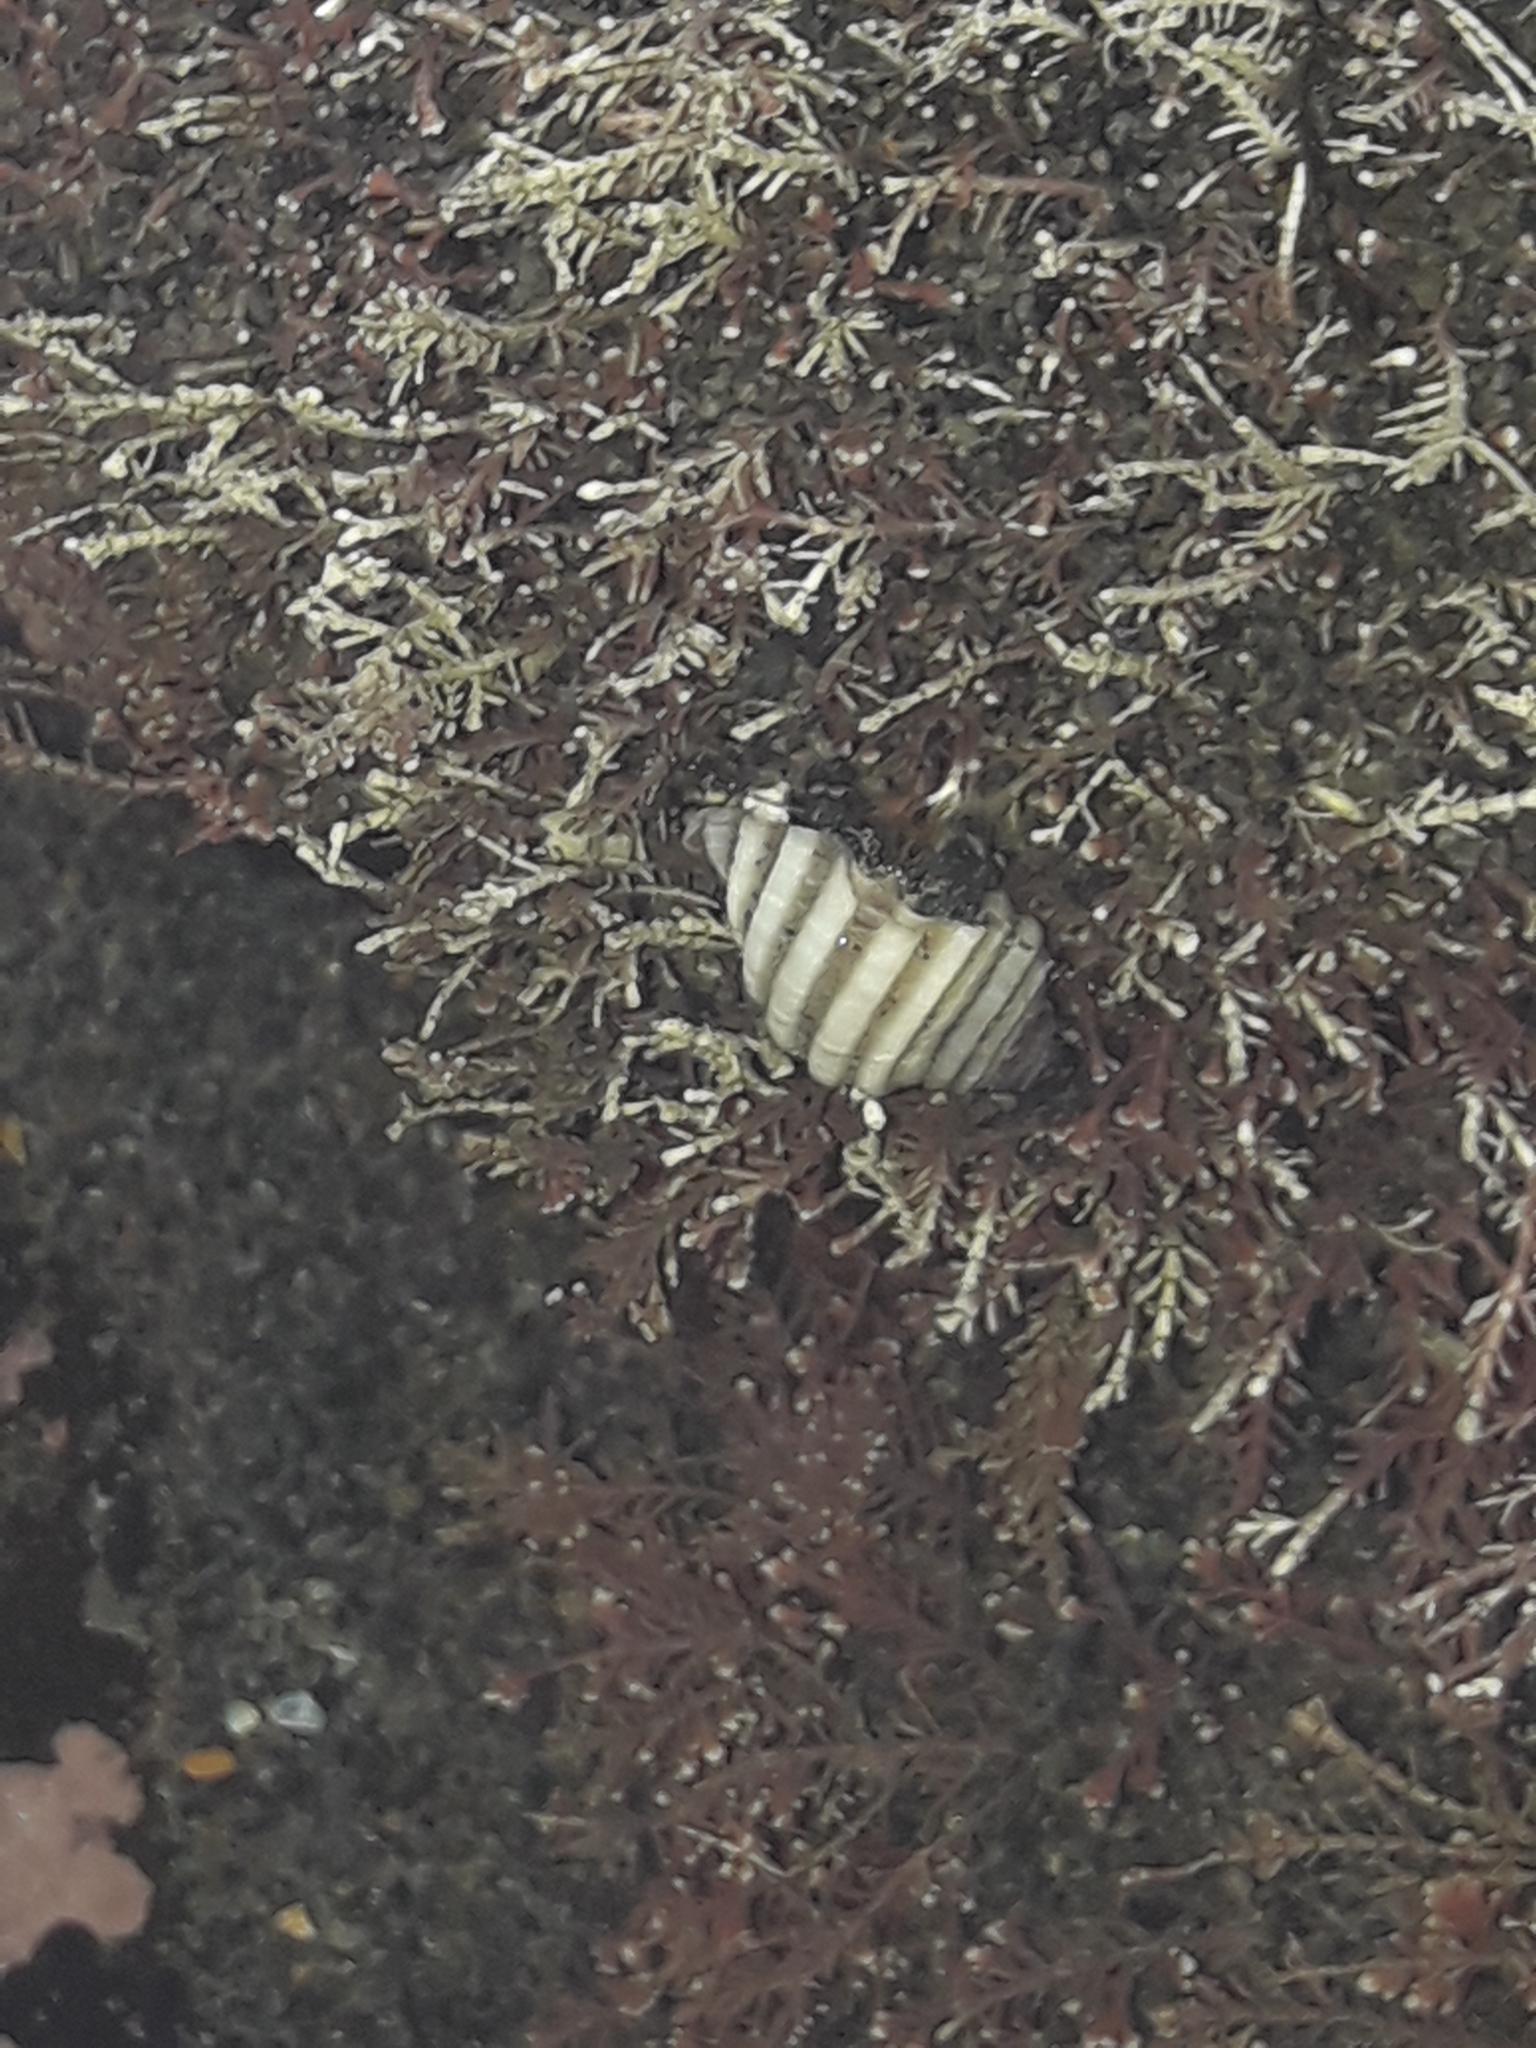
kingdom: Animalia
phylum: Mollusca
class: Gastropoda
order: Neogastropoda
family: Muricidae
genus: Paratrophon
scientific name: Paratrophon cheesemani
